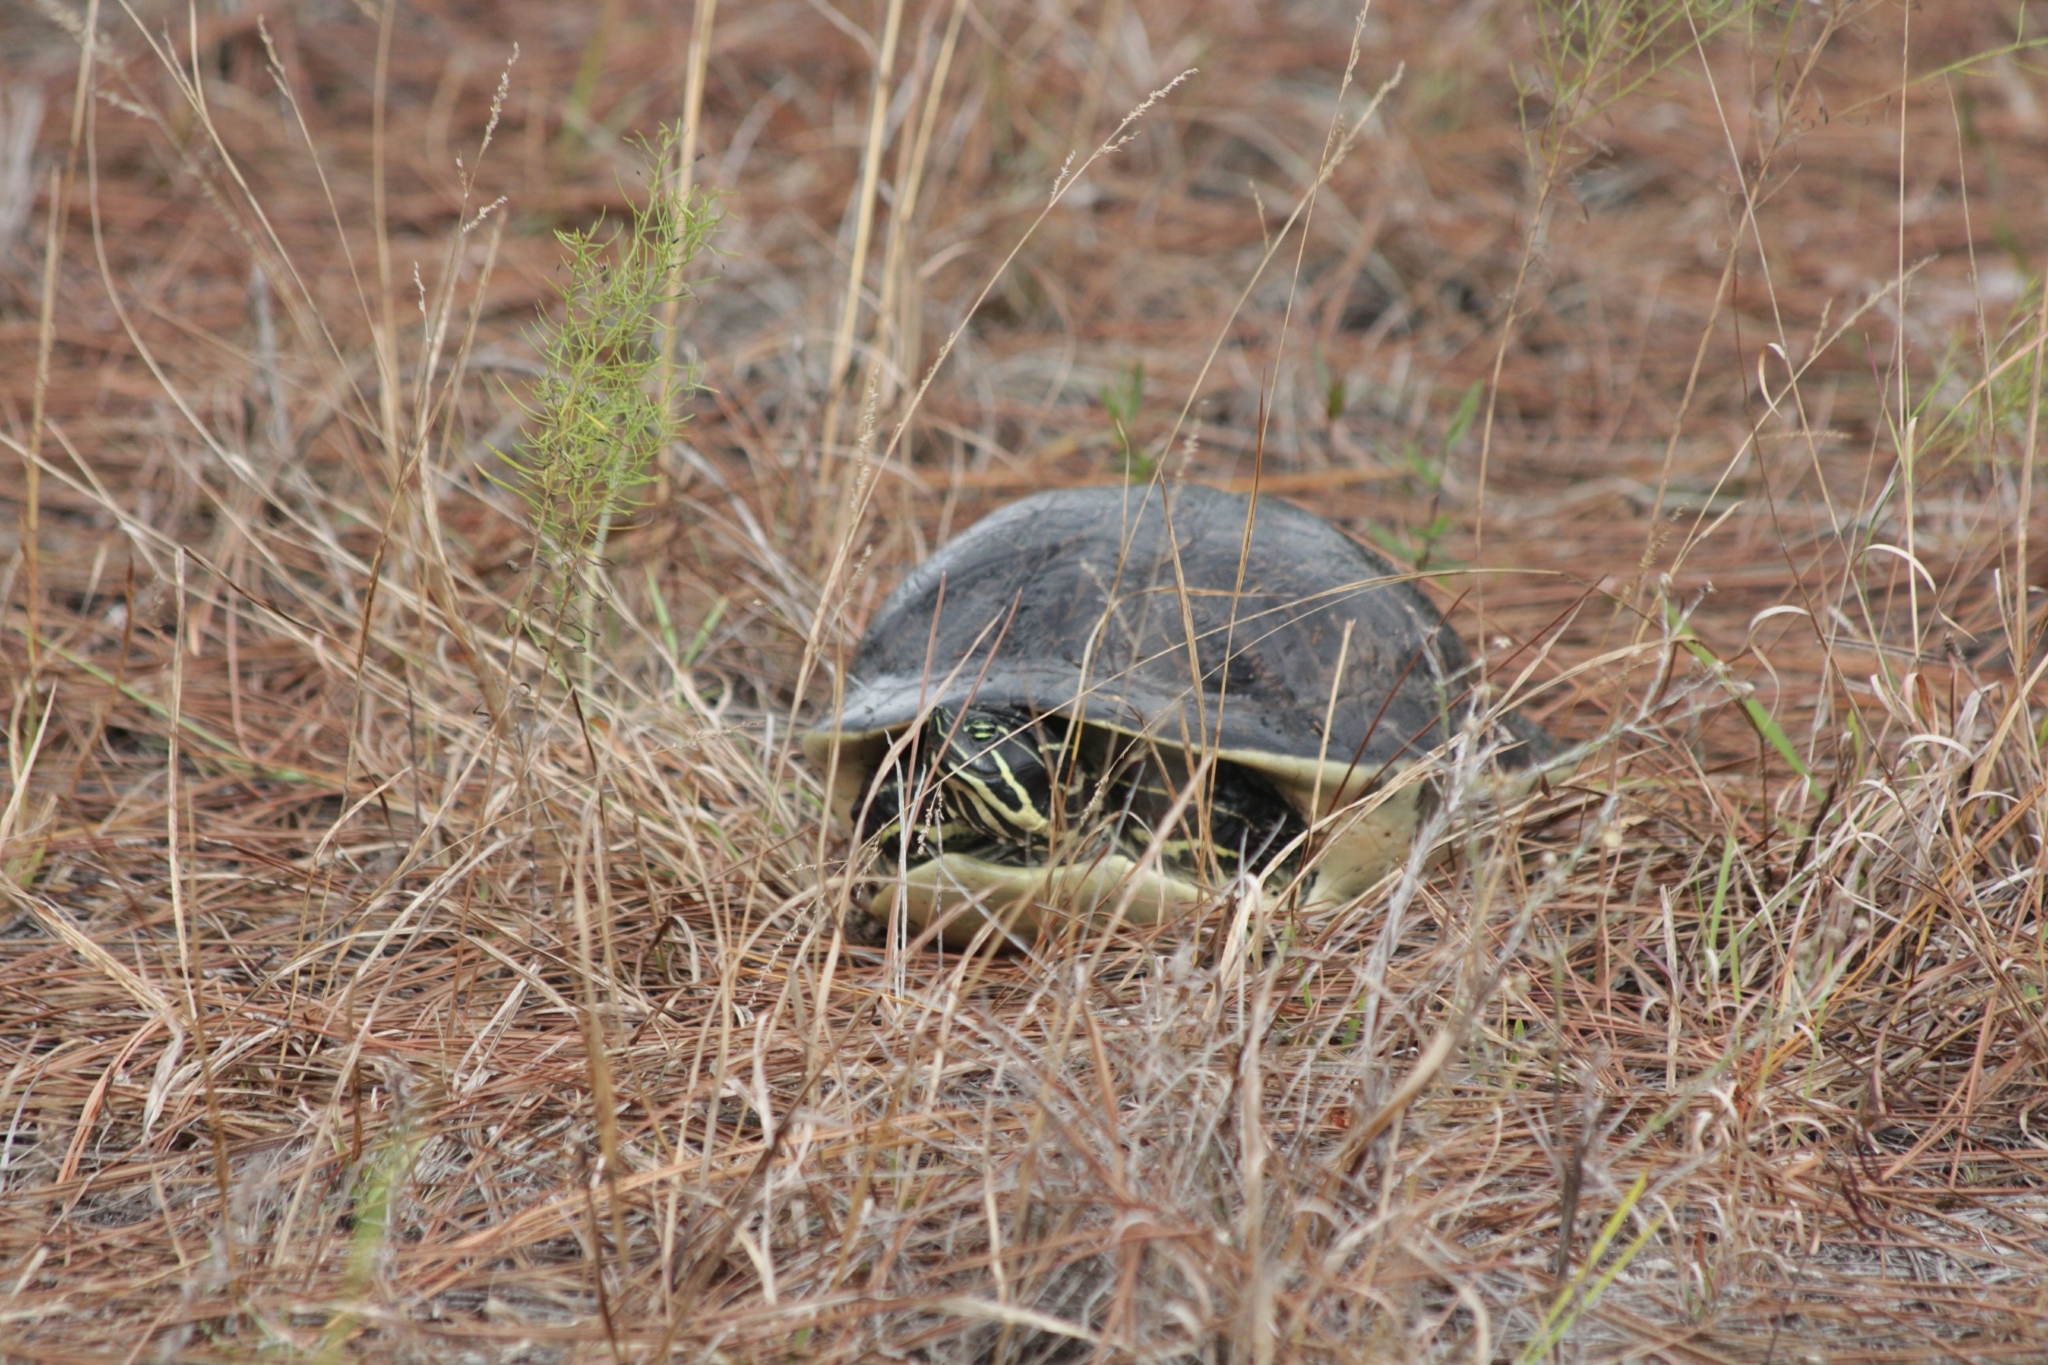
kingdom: Animalia
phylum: Chordata
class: Testudines
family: Emydidae
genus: Pseudemys
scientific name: Pseudemys peninsularis
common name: Peninsula cooter
